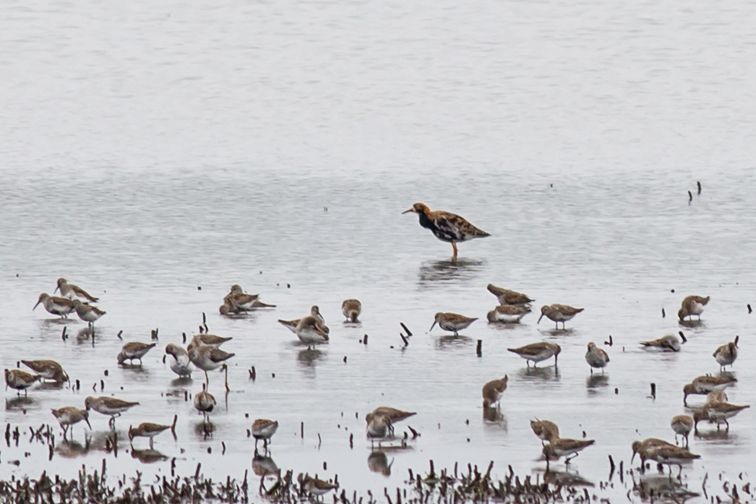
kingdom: Animalia
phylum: Chordata
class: Aves
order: Charadriiformes
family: Scolopacidae
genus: Calidris
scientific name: Calidris pugnax
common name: Ruff
